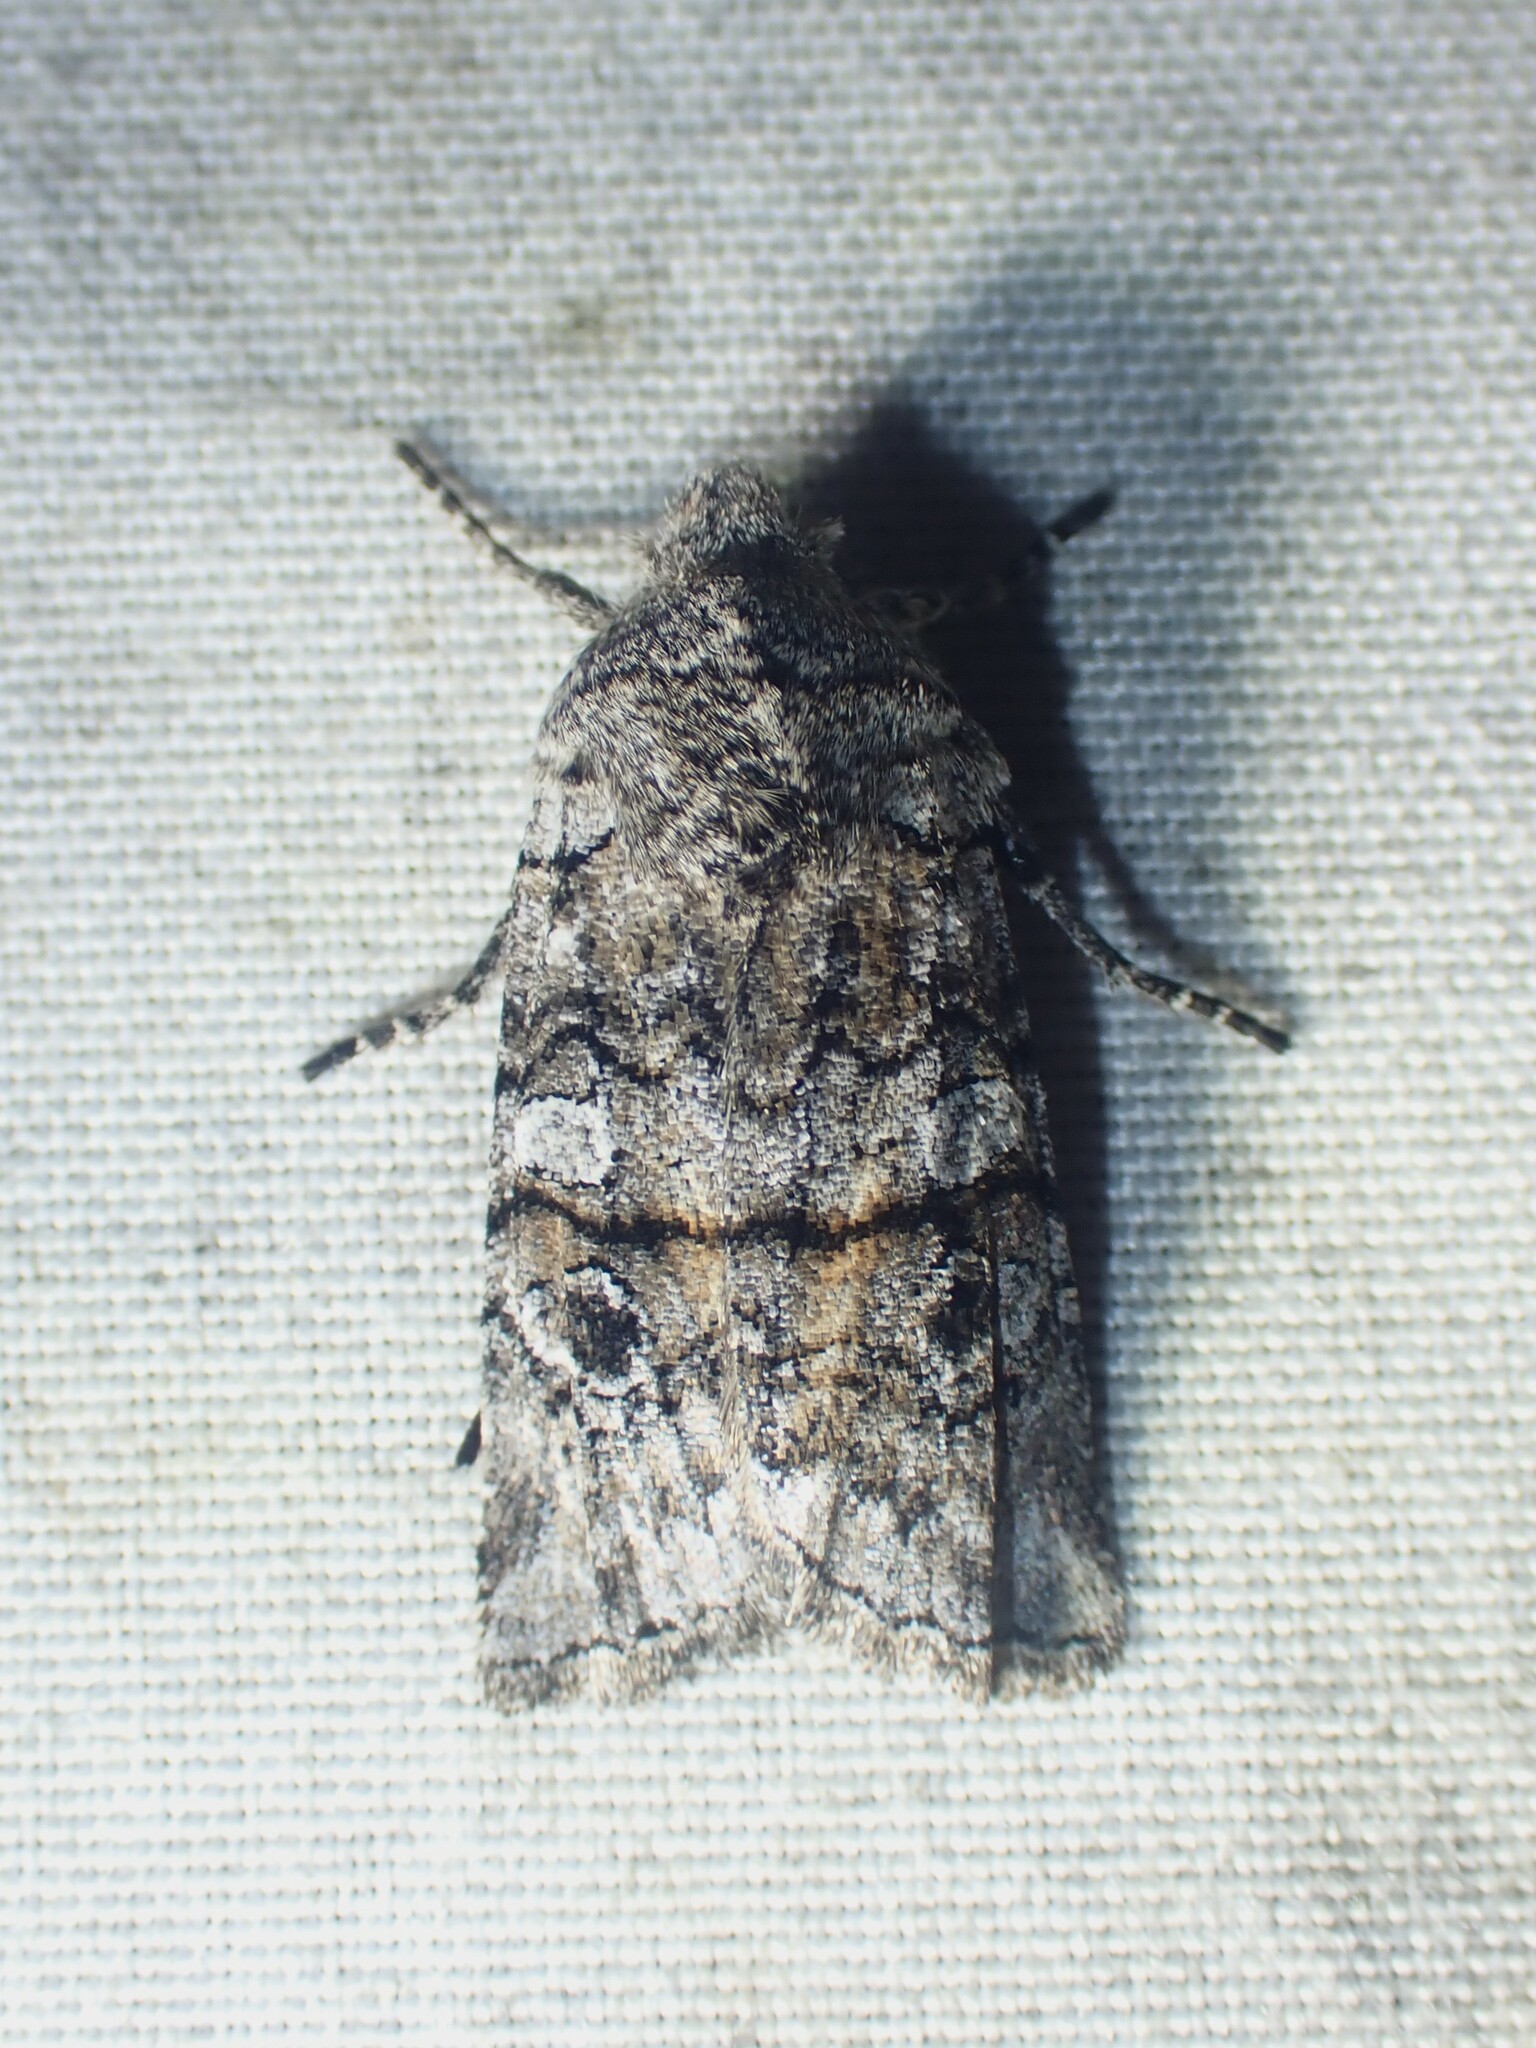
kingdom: Animalia
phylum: Arthropoda
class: Insecta
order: Lepidoptera
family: Noctuidae
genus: Litholomia
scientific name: Litholomia napaea
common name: False pinion moth
